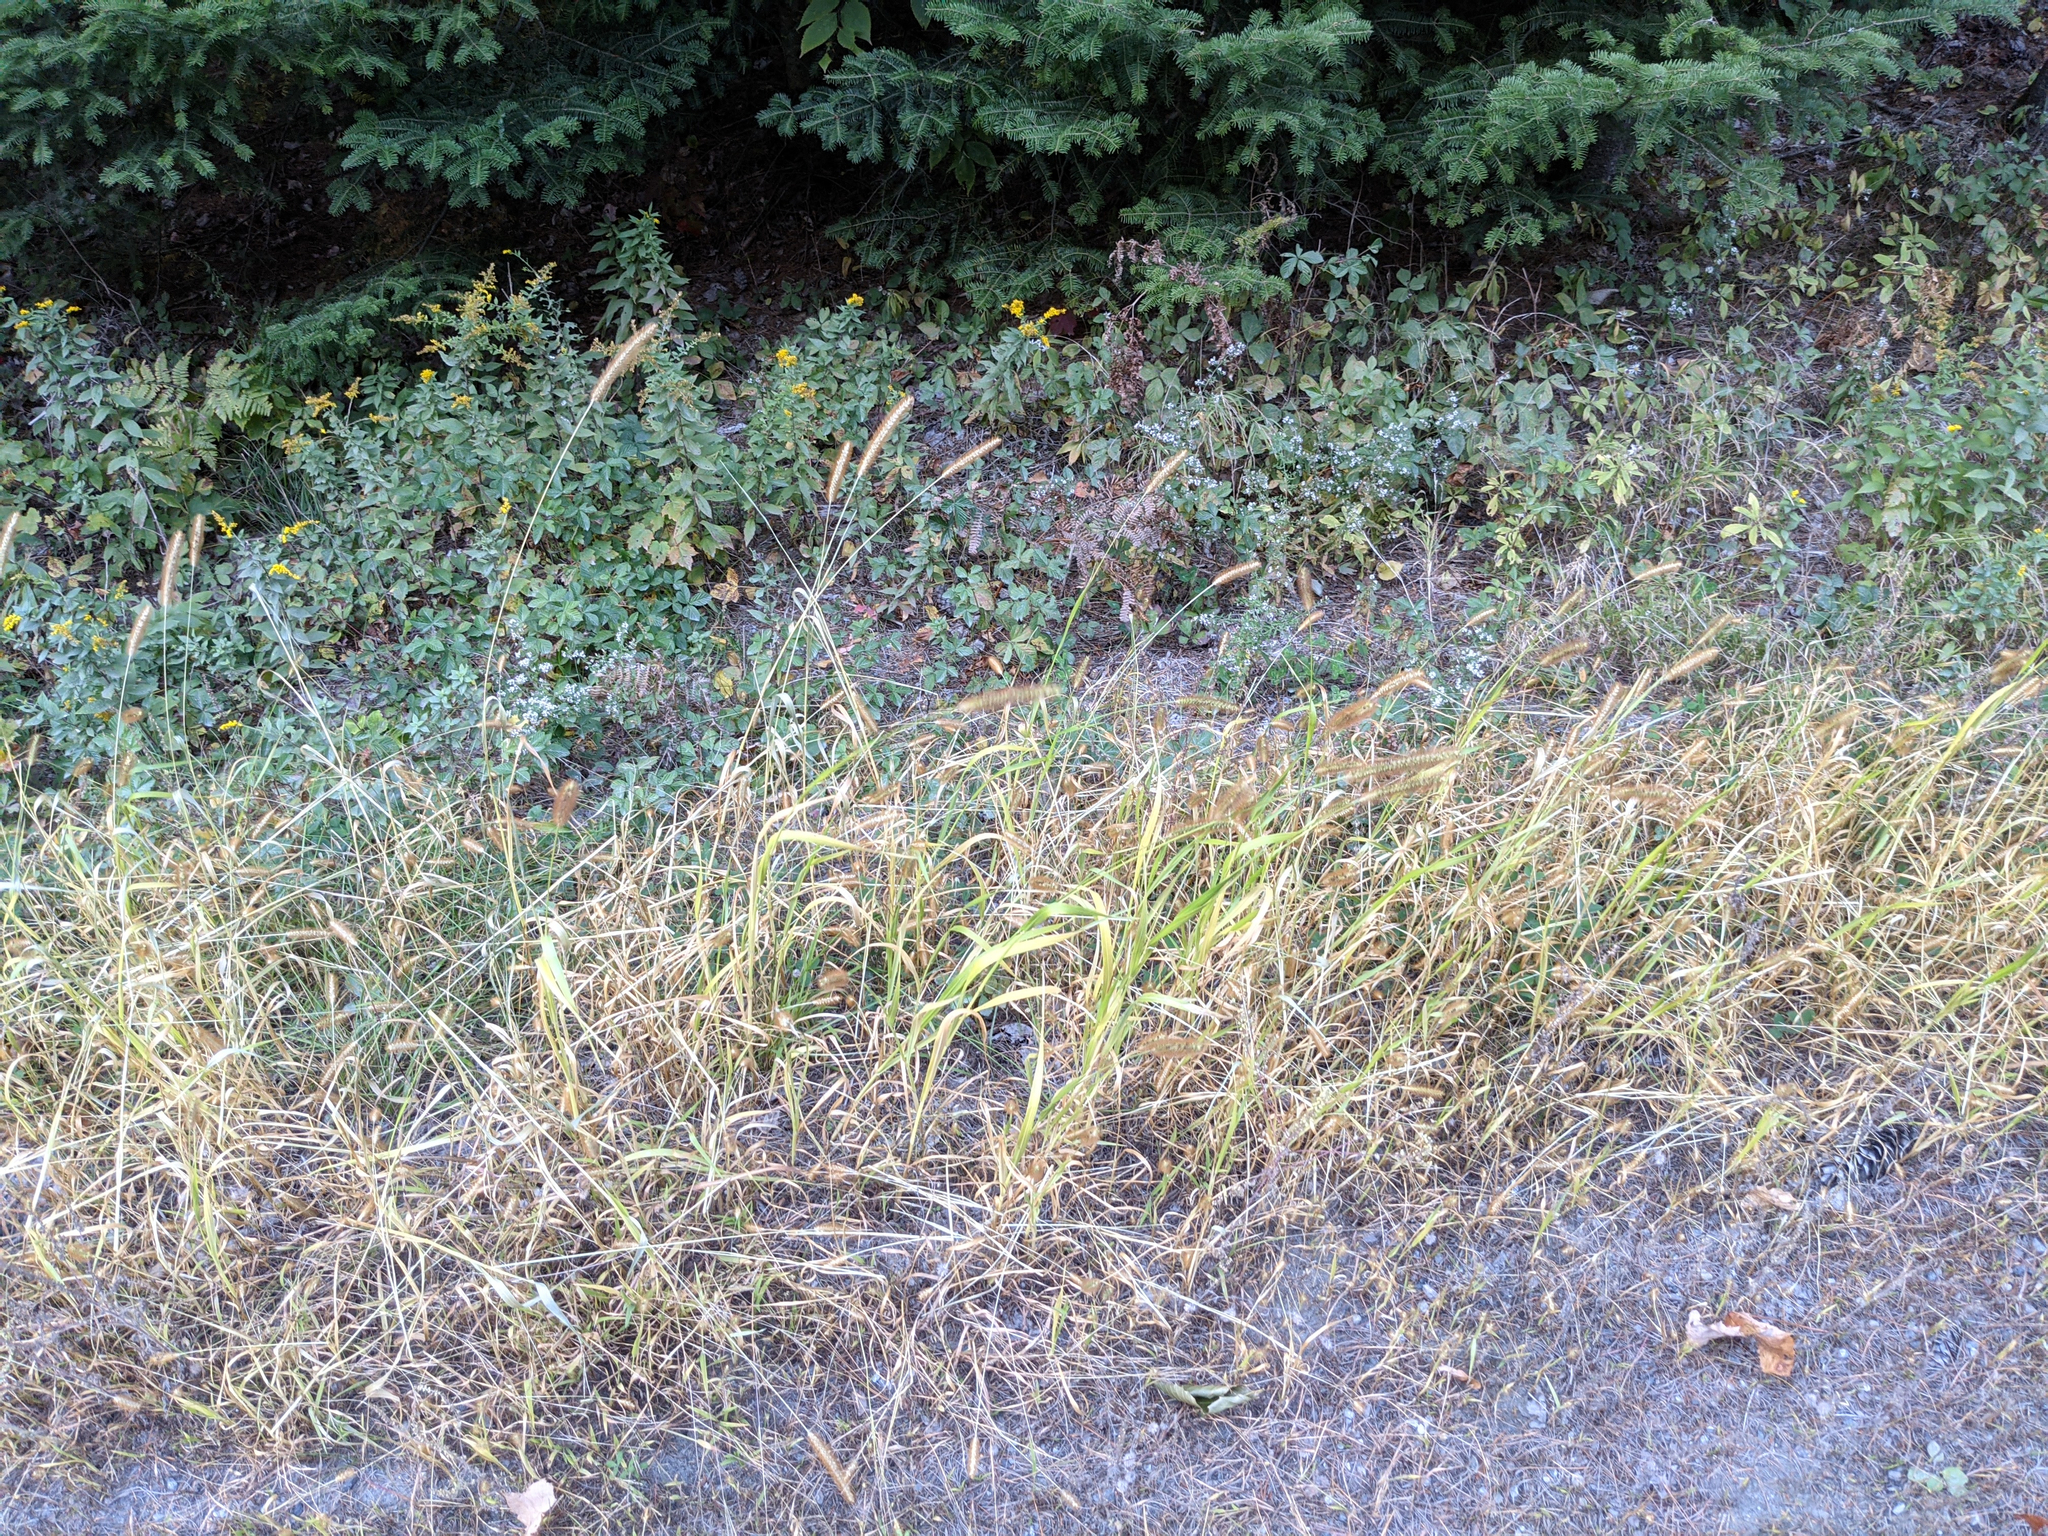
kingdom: Plantae
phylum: Tracheophyta
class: Liliopsida
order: Poales
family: Poaceae
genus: Setaria
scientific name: Setaria pumila
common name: Yellow bristle-grass
